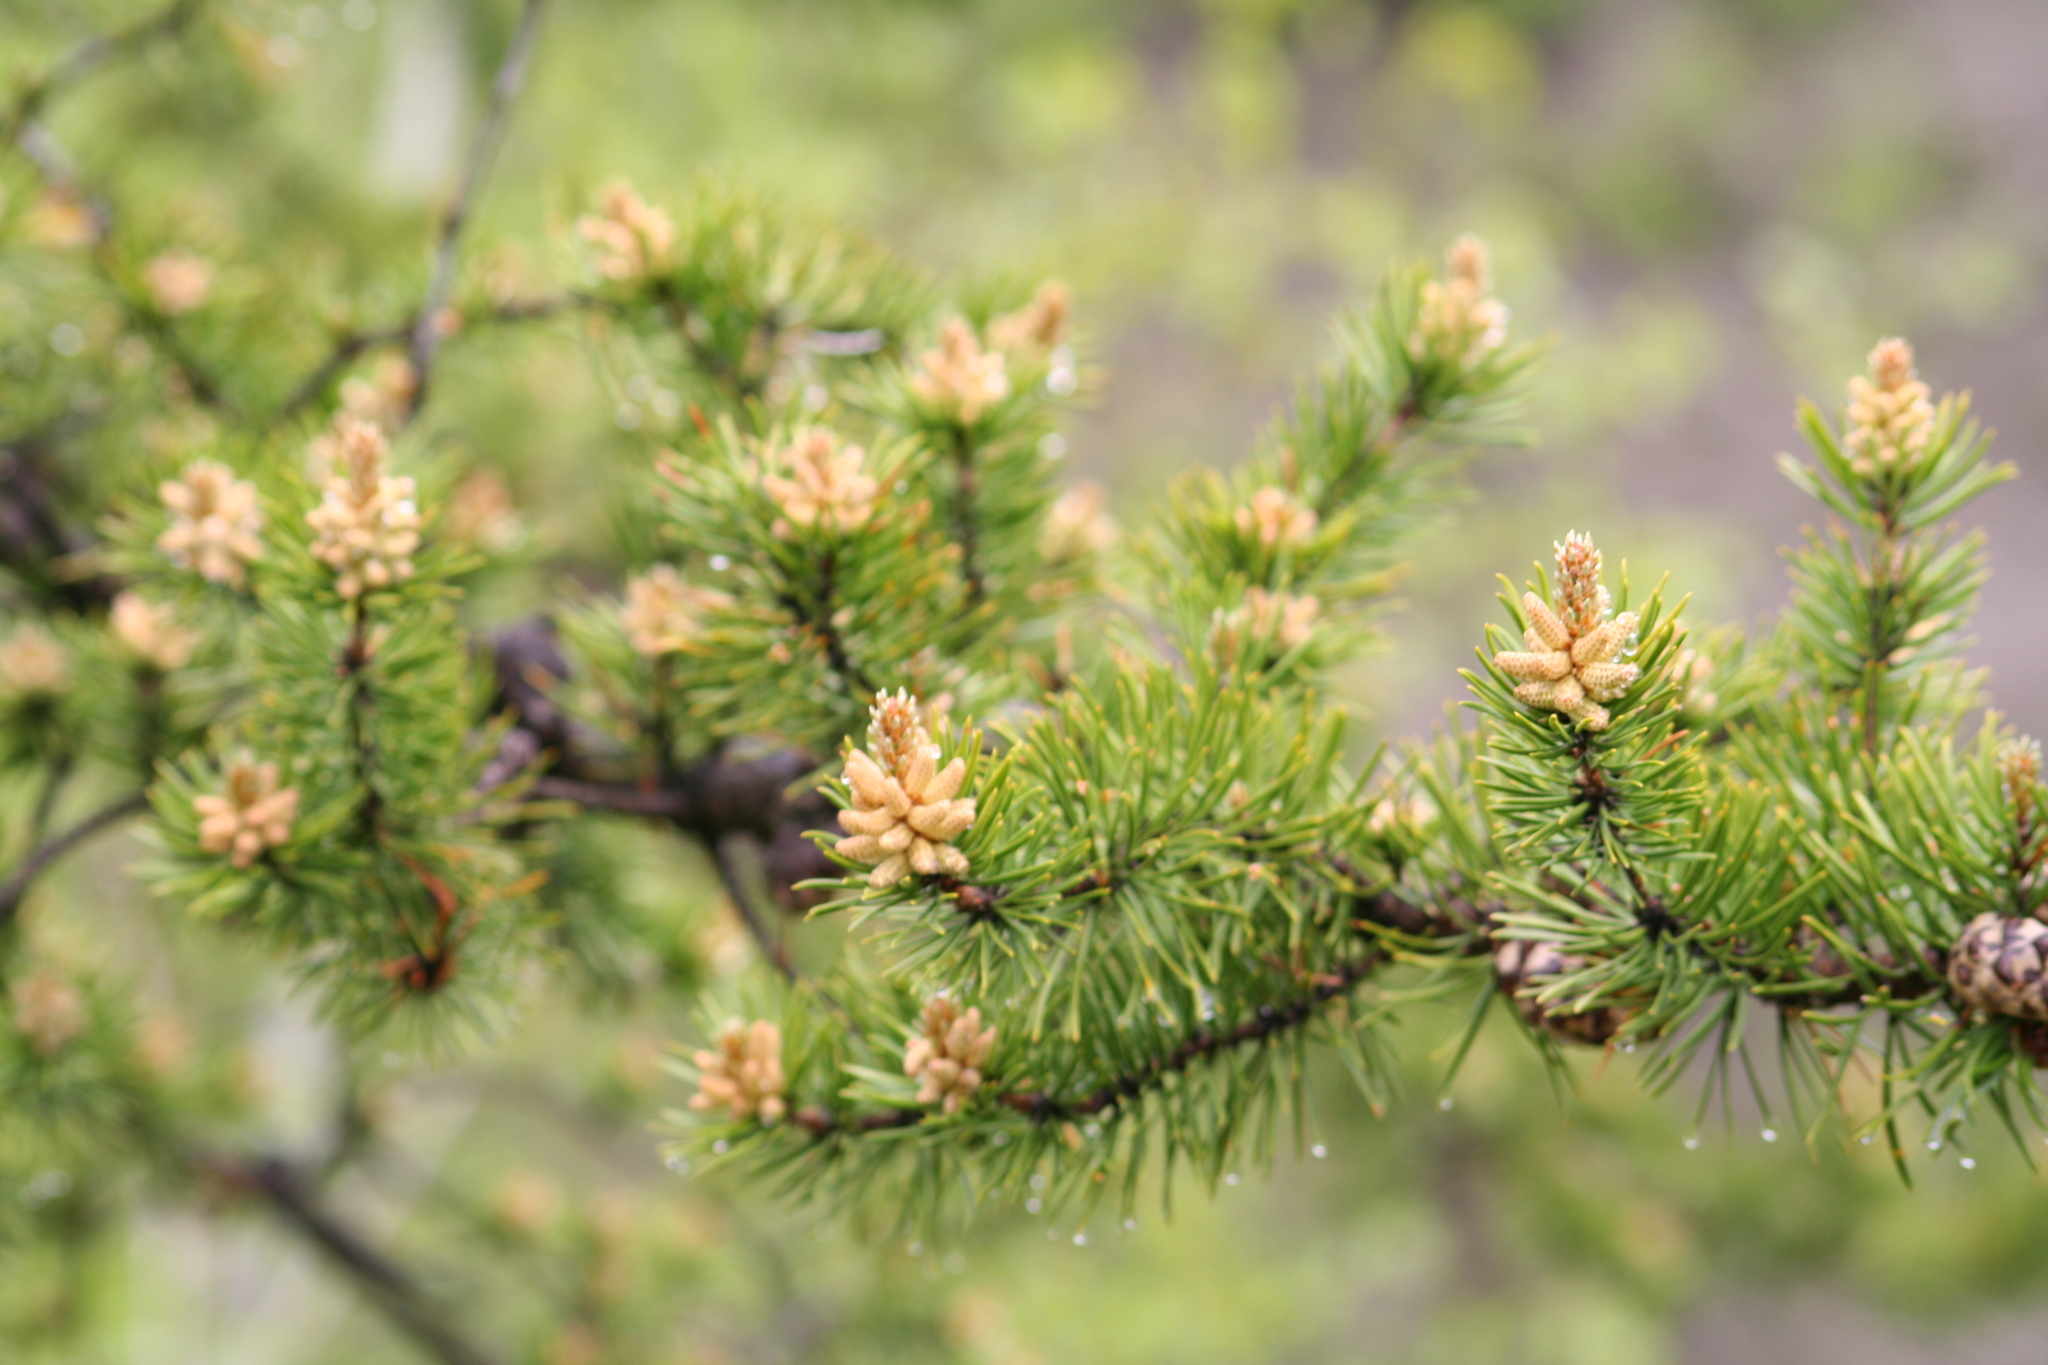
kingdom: Plantae
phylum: Tracheophyta
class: Pinopsida
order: Pinales
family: Pinaceae
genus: Pinus
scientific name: Pinus banksiana
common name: Jack pine
